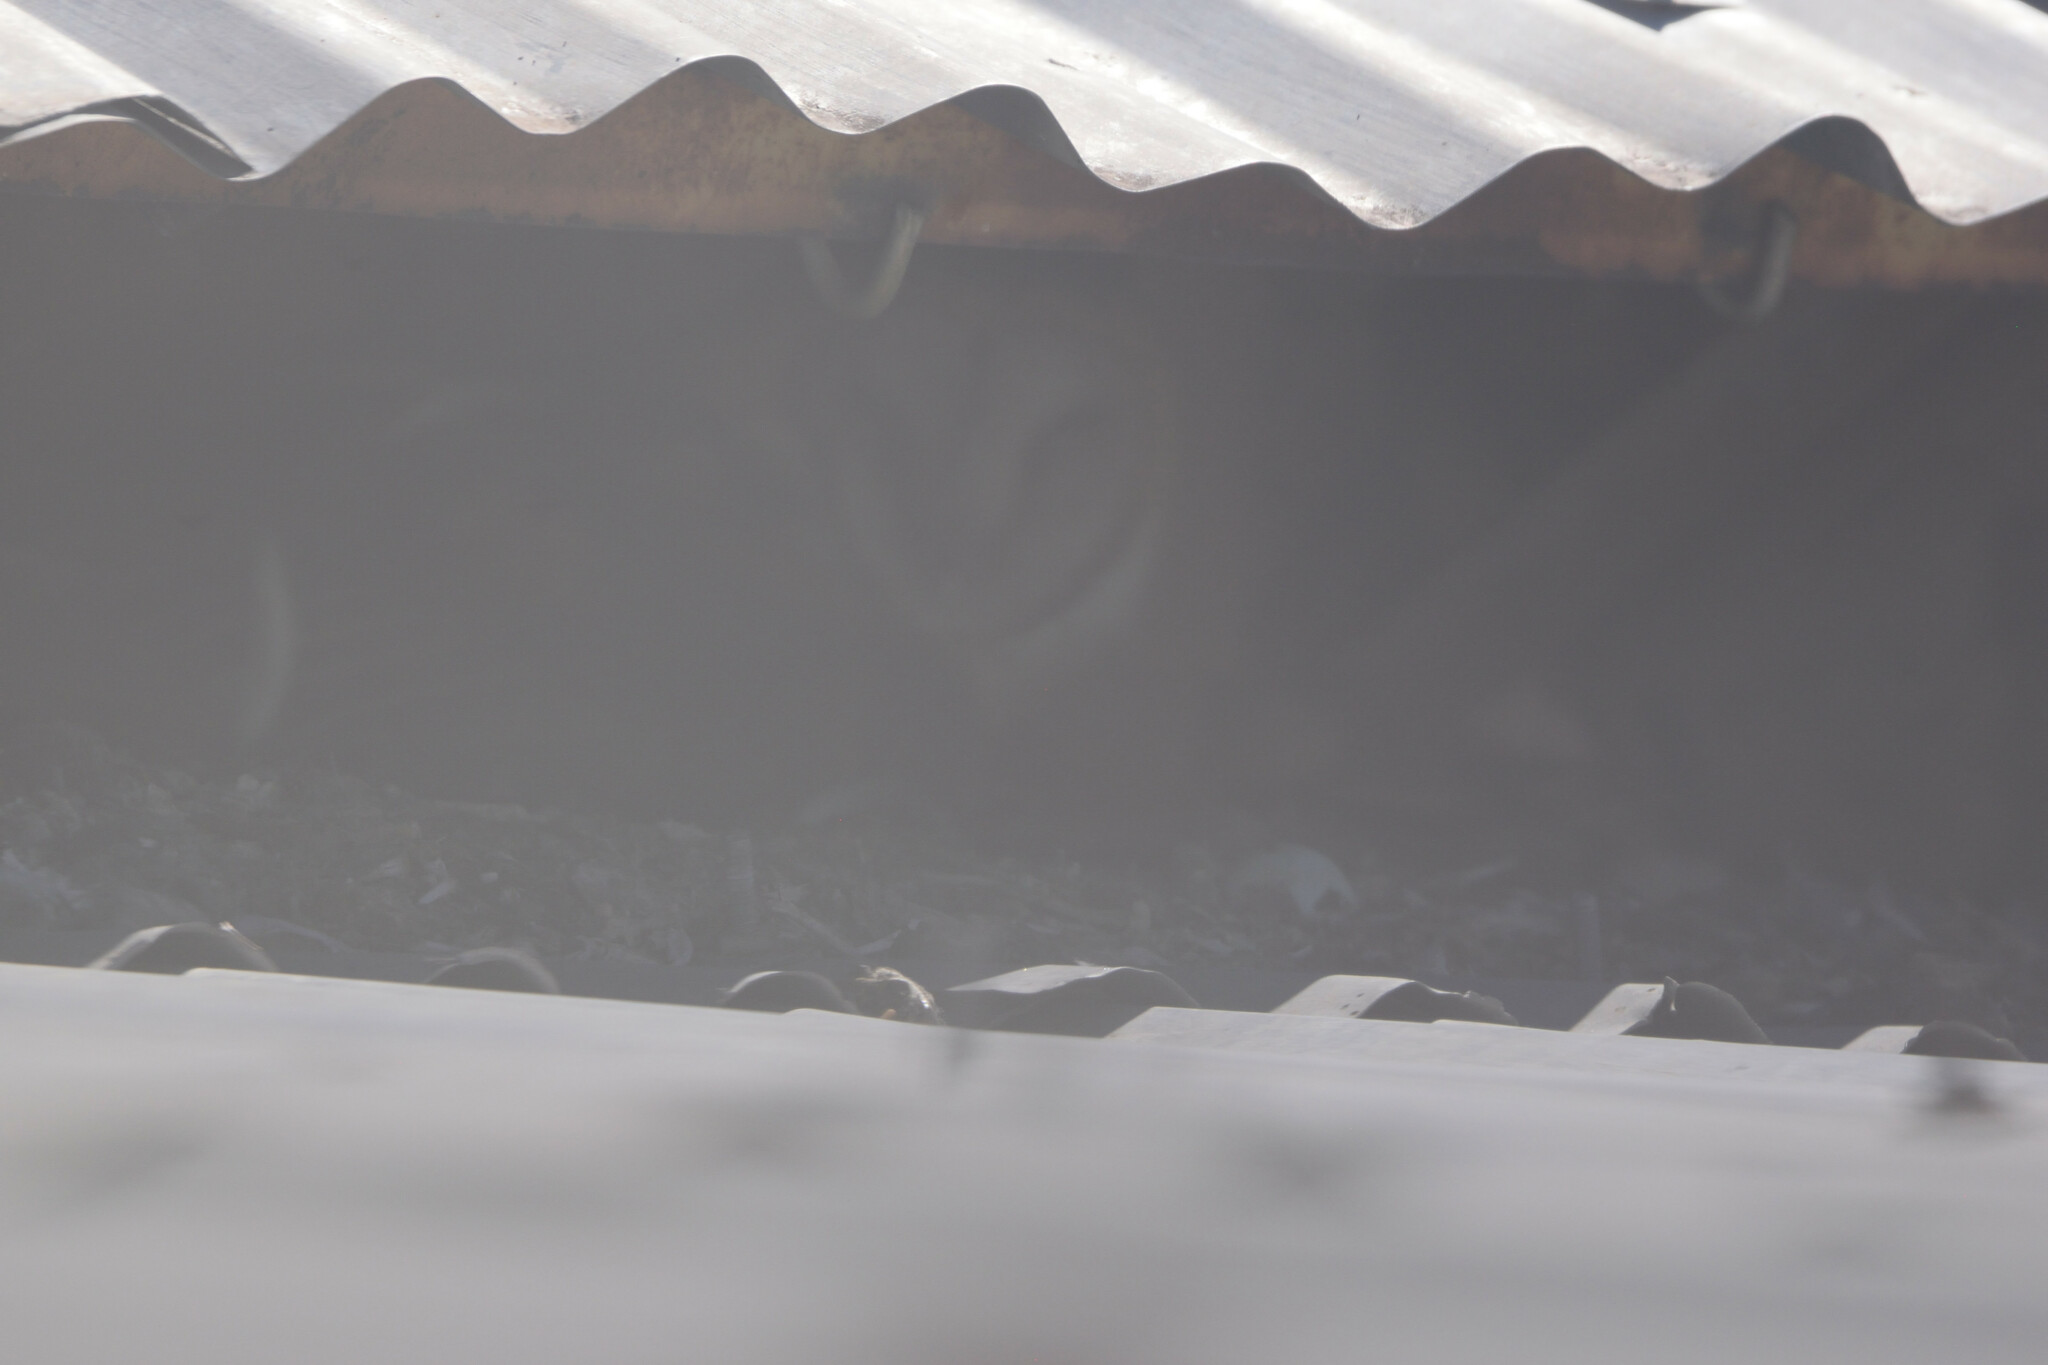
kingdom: Animalia
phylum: Chordata
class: Aves
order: Strigiformes
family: Tytonidae
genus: Tyto
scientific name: Tyto alba
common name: Barn owl
